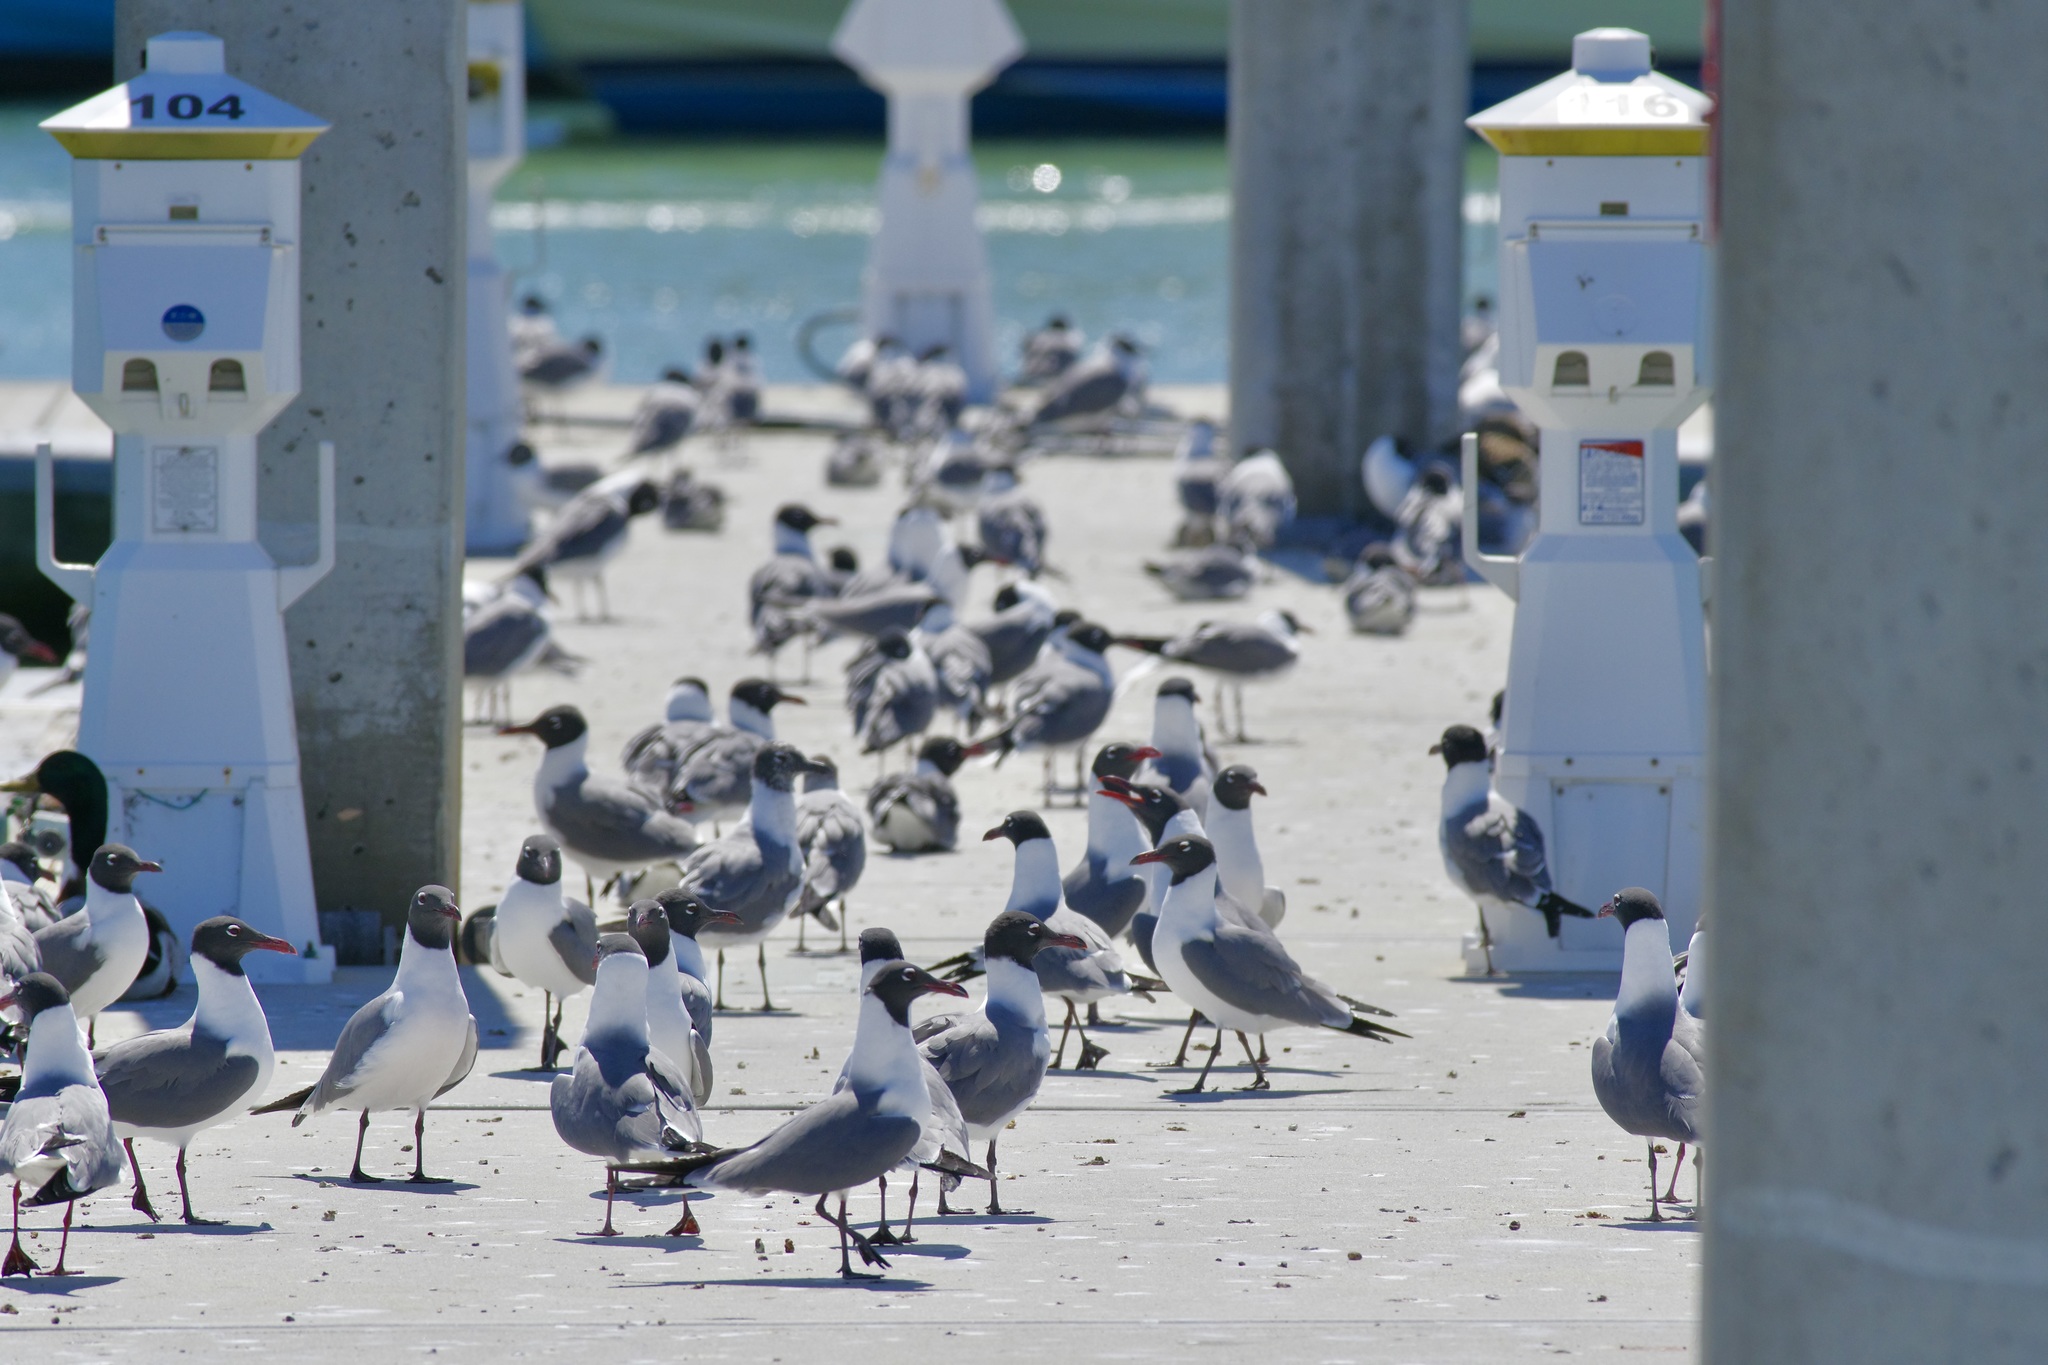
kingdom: Animalia
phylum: Chordata
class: Aves
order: Charadriiformes
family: Laridae
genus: Leucophaeus
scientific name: Leucophaeus atricilla
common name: Laughing gull
